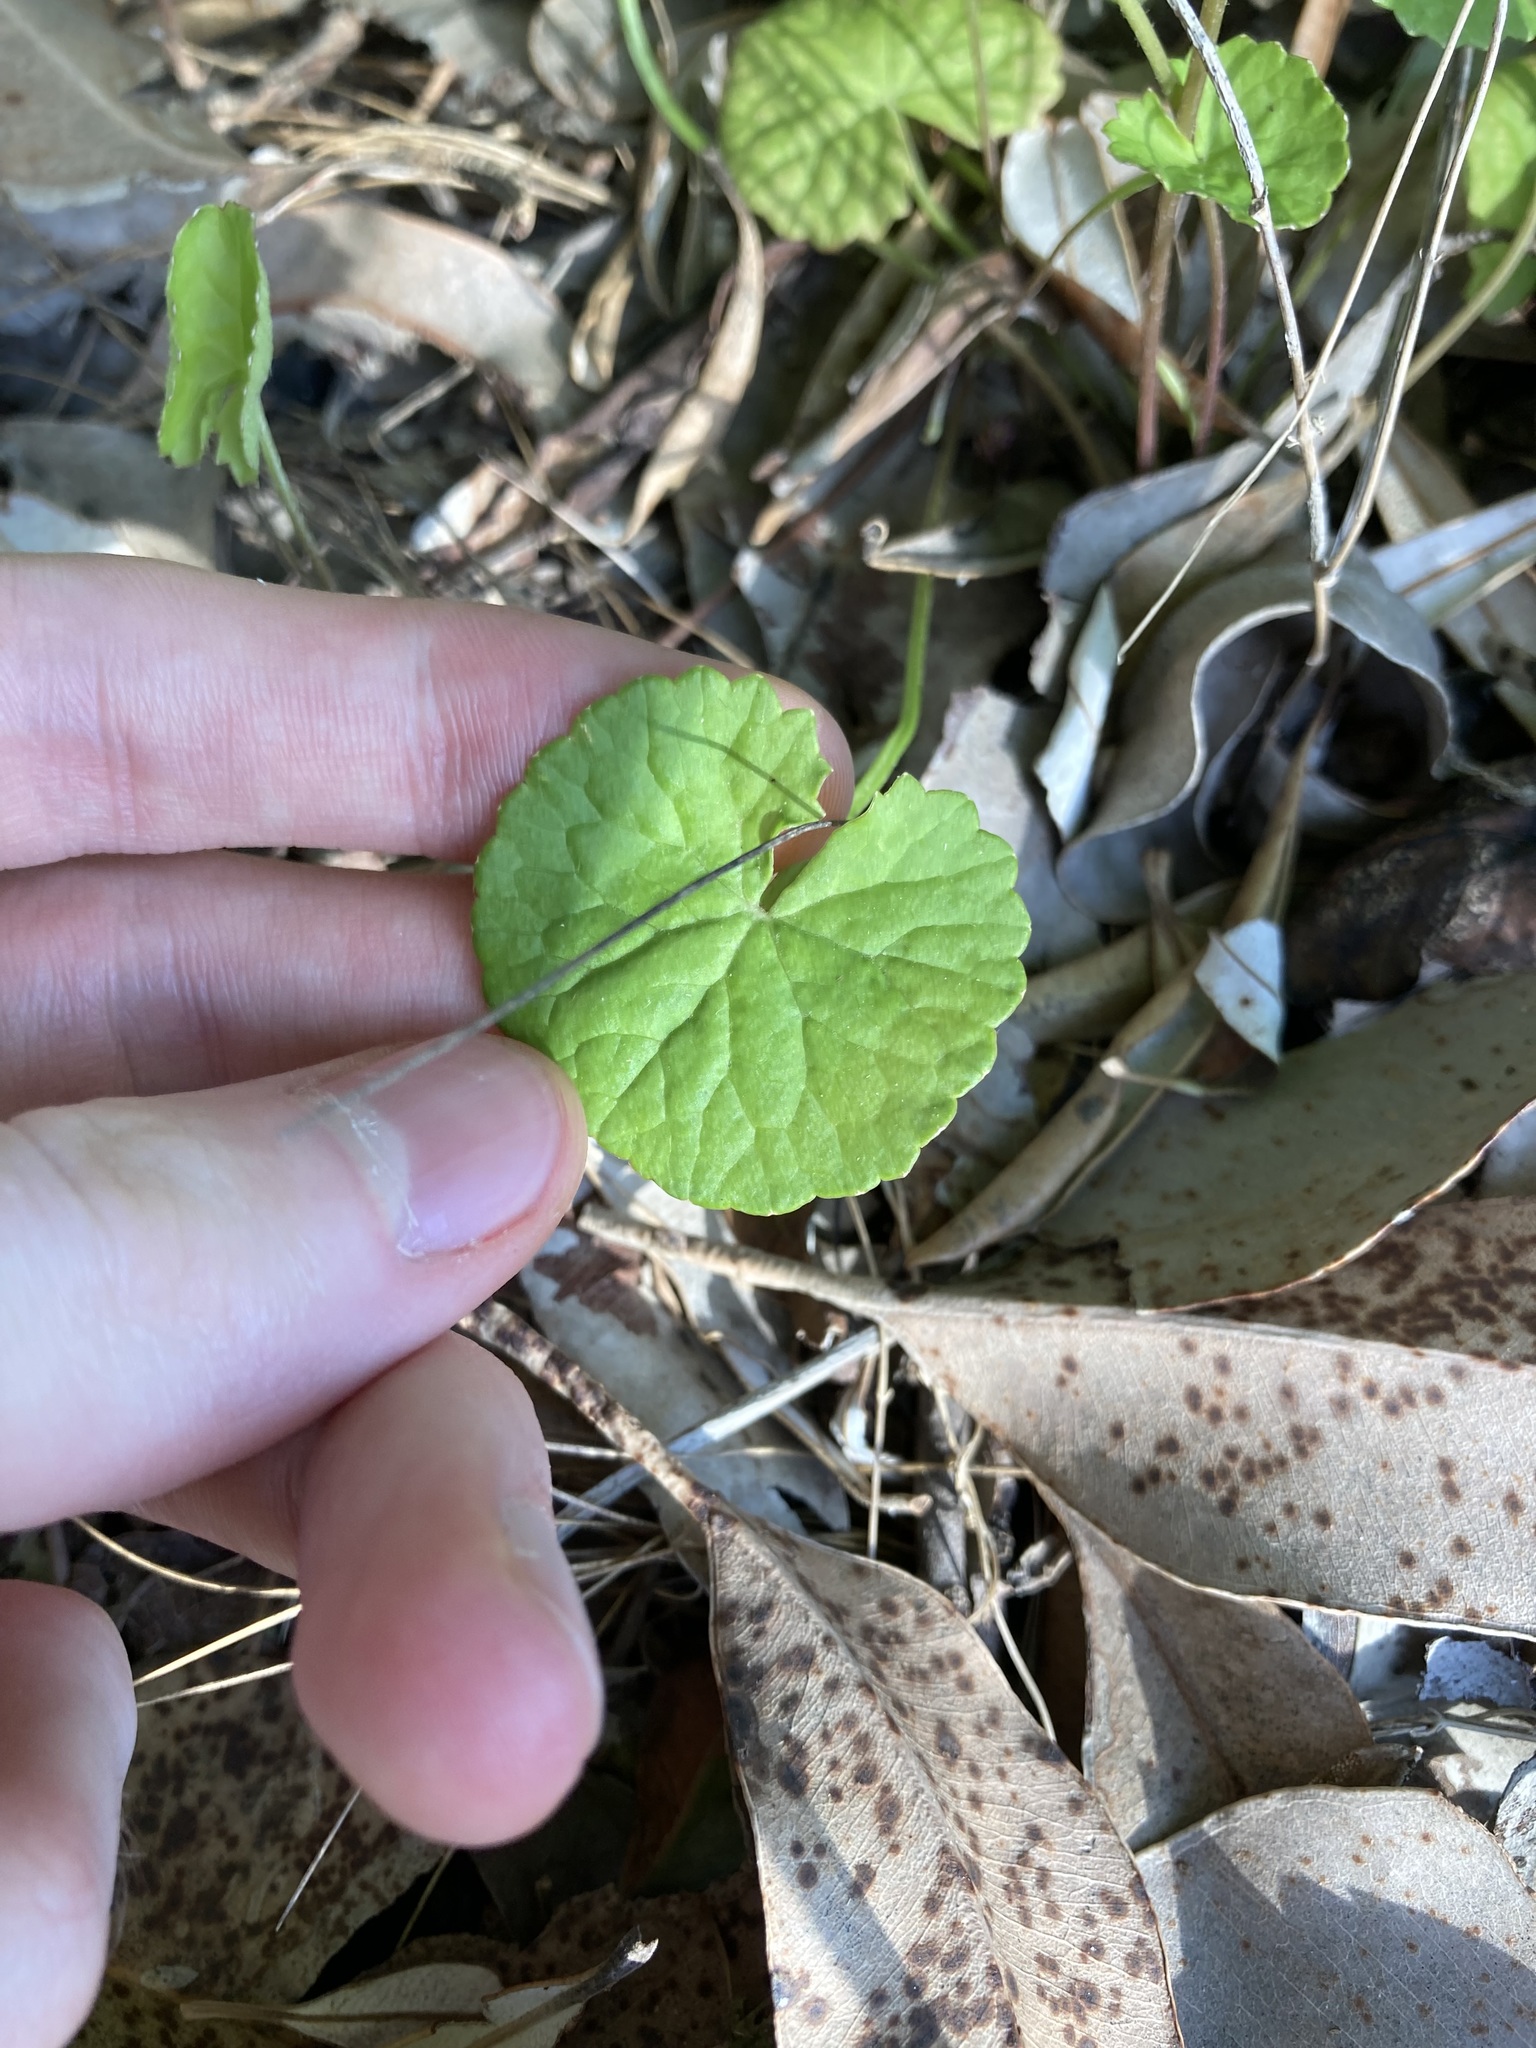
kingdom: Plantae
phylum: Tracheophyta
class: Magnoliopsida
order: Apiales
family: Apiaceae
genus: Centella
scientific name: Centella asiatica
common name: Spadeleaf
